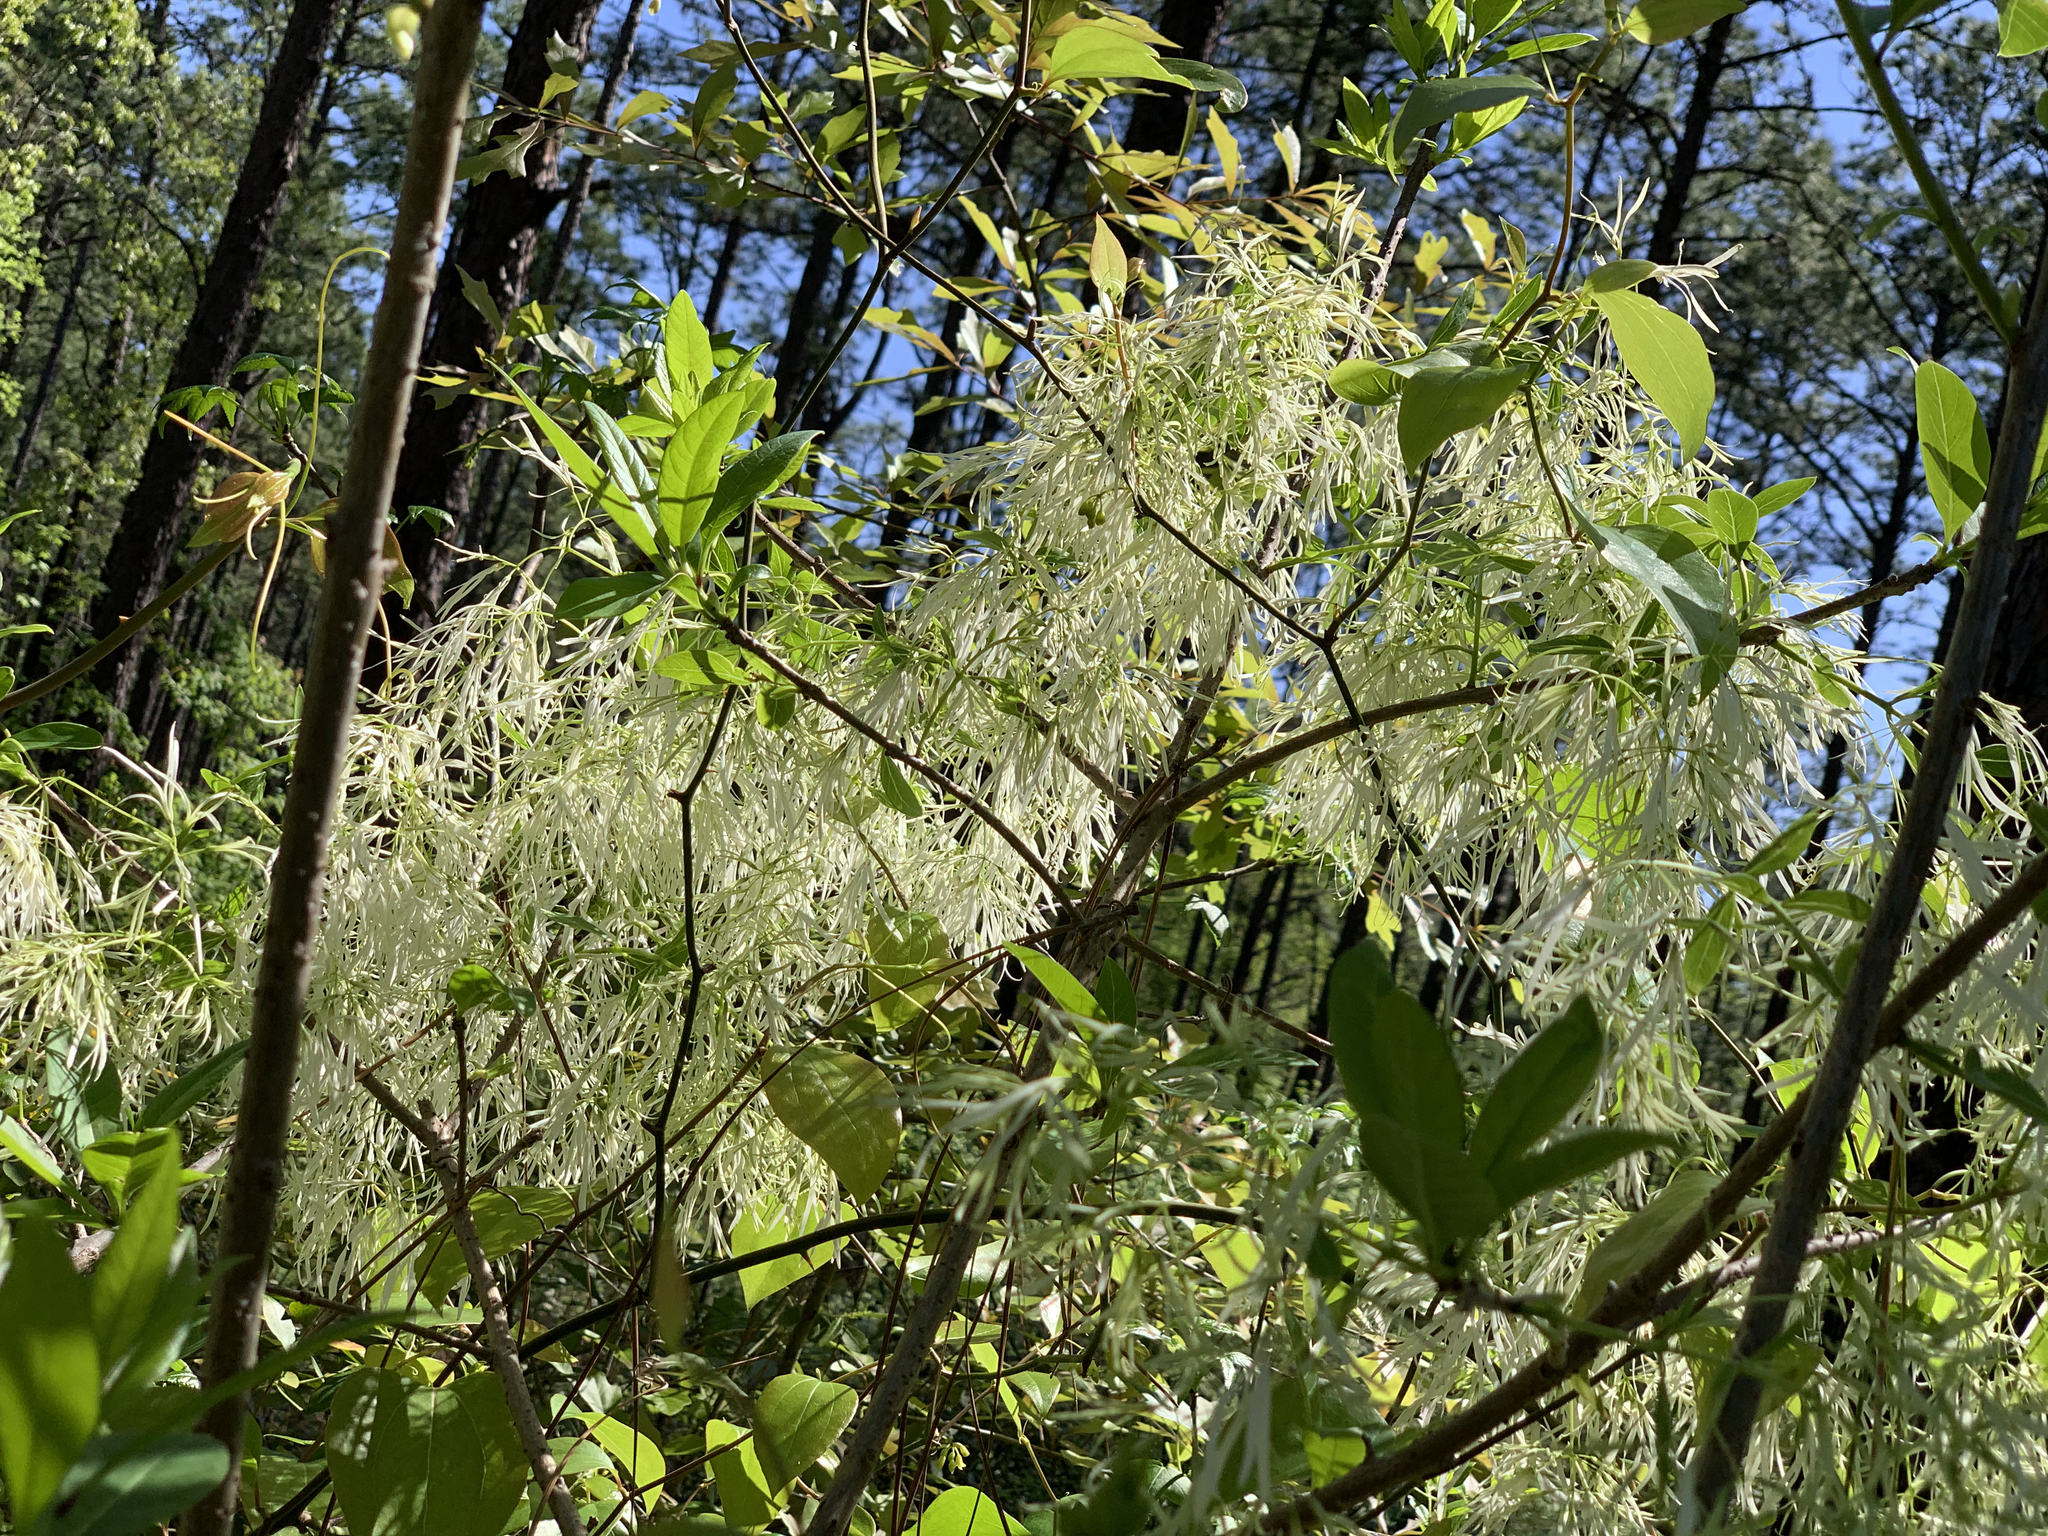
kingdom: Plantae
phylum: Tracheophyta
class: Magnoliopsida
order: Lamiales
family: Oleaceae
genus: Chionanthus
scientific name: Chionanthus virginicus
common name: American fringetree
